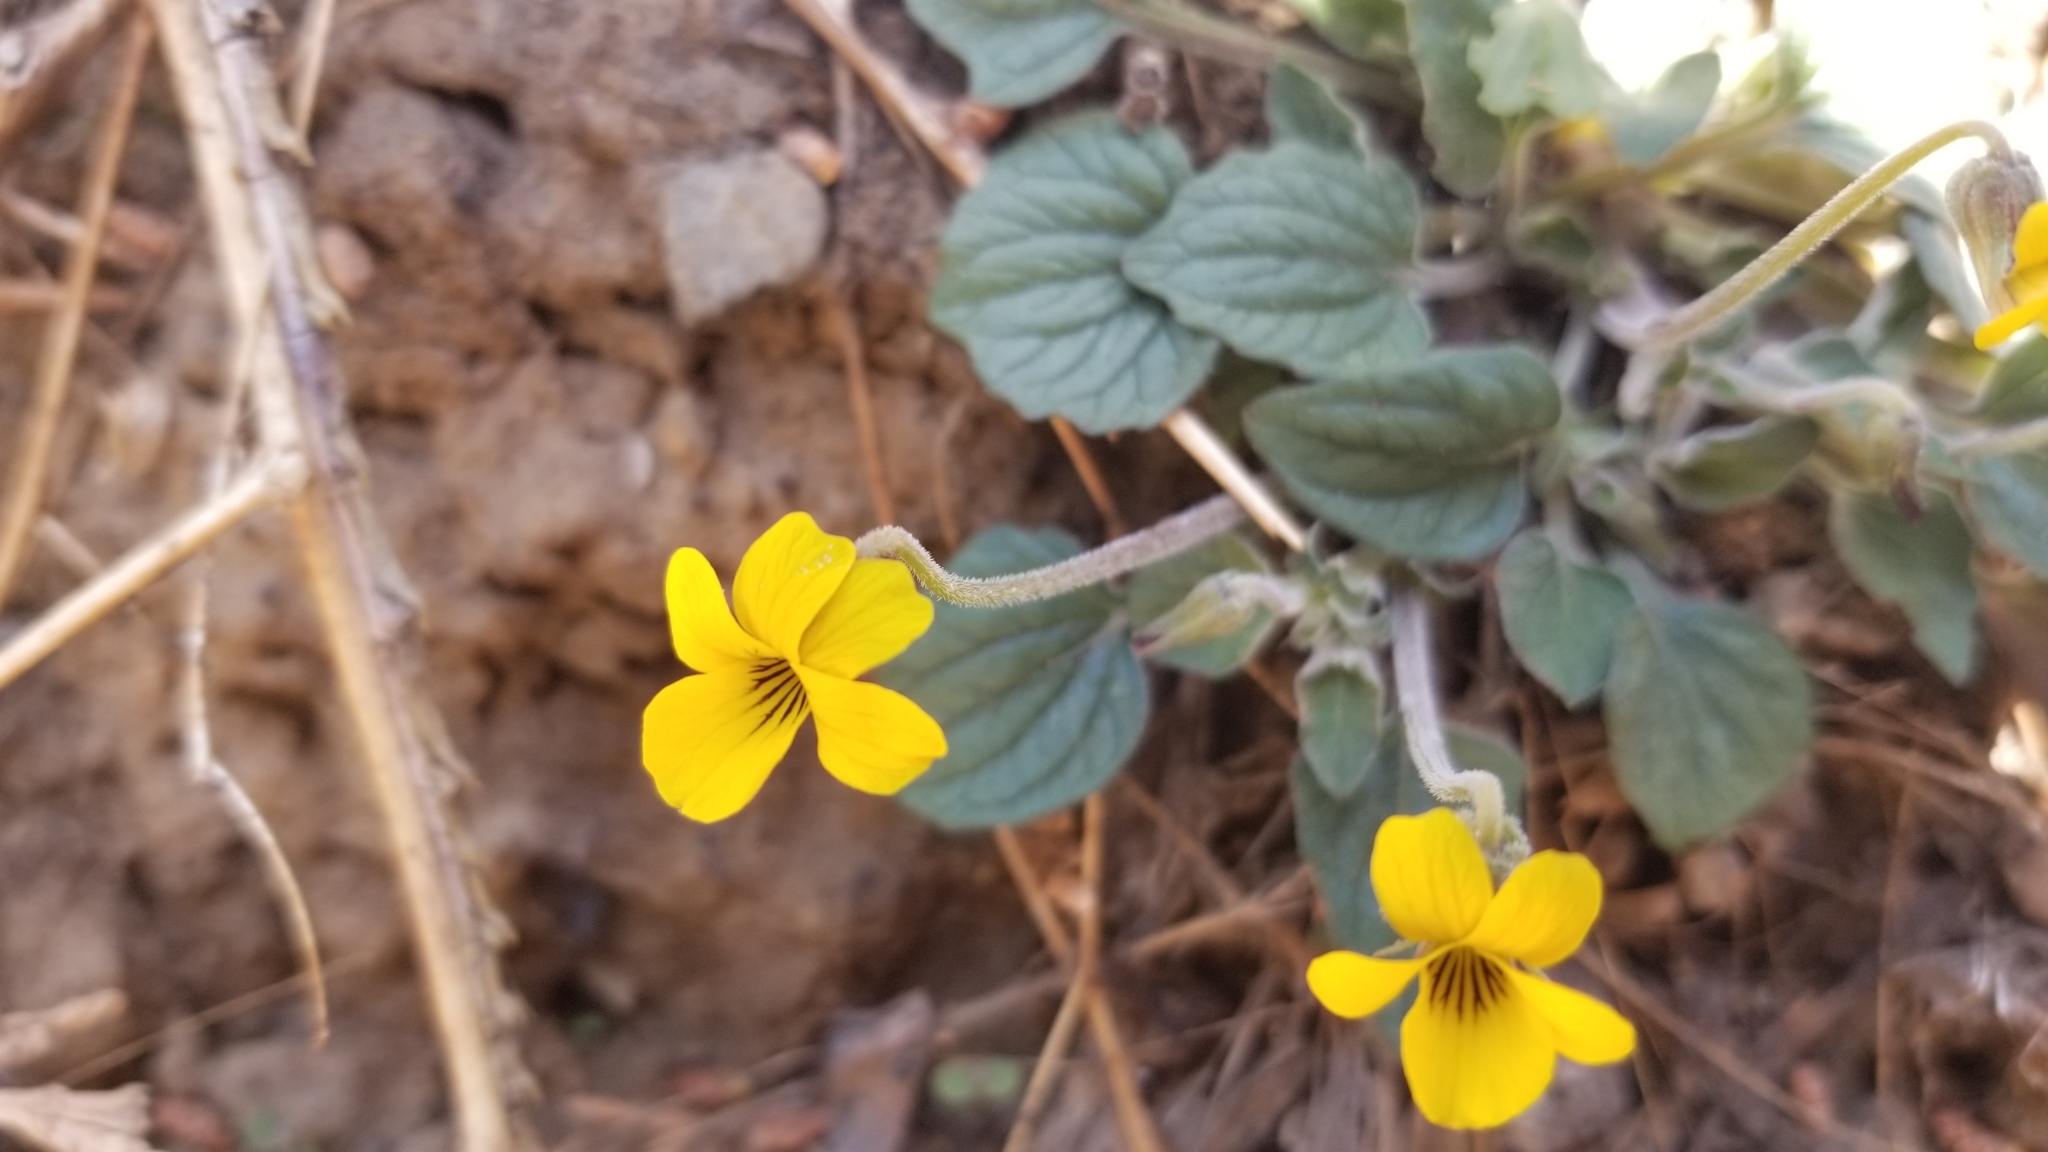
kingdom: Plantae
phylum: Tracheophyta
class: Magnoliopsida
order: Malpighiales
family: Violaceae
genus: Viola
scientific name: Viola purpurea
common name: Pine violet
